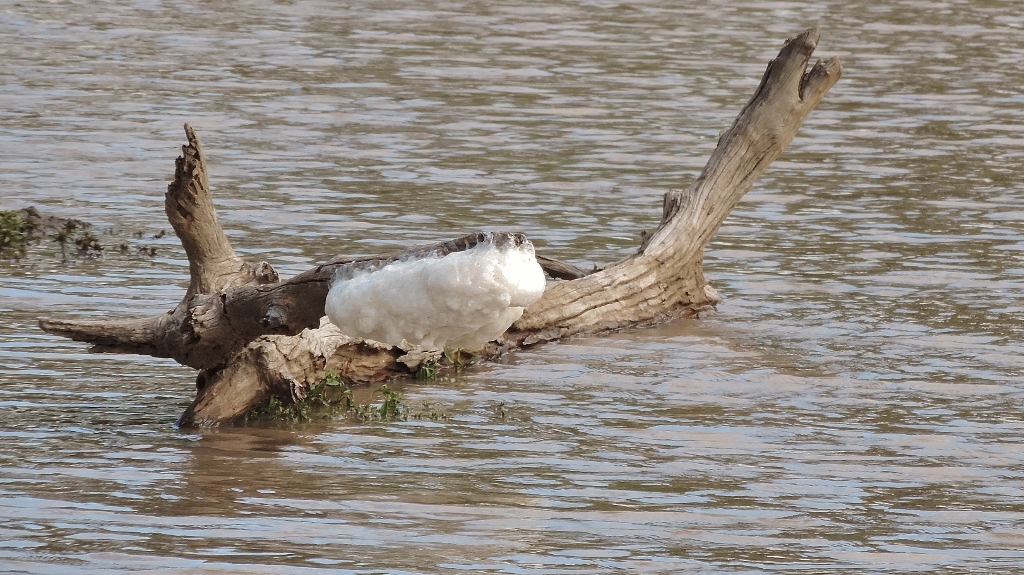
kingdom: Animalia
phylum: Chordata
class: Amphibia
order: Anura
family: Rhacophoridae
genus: Chiromantis
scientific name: Chiromantis xerampelina
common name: African gray treefrog
